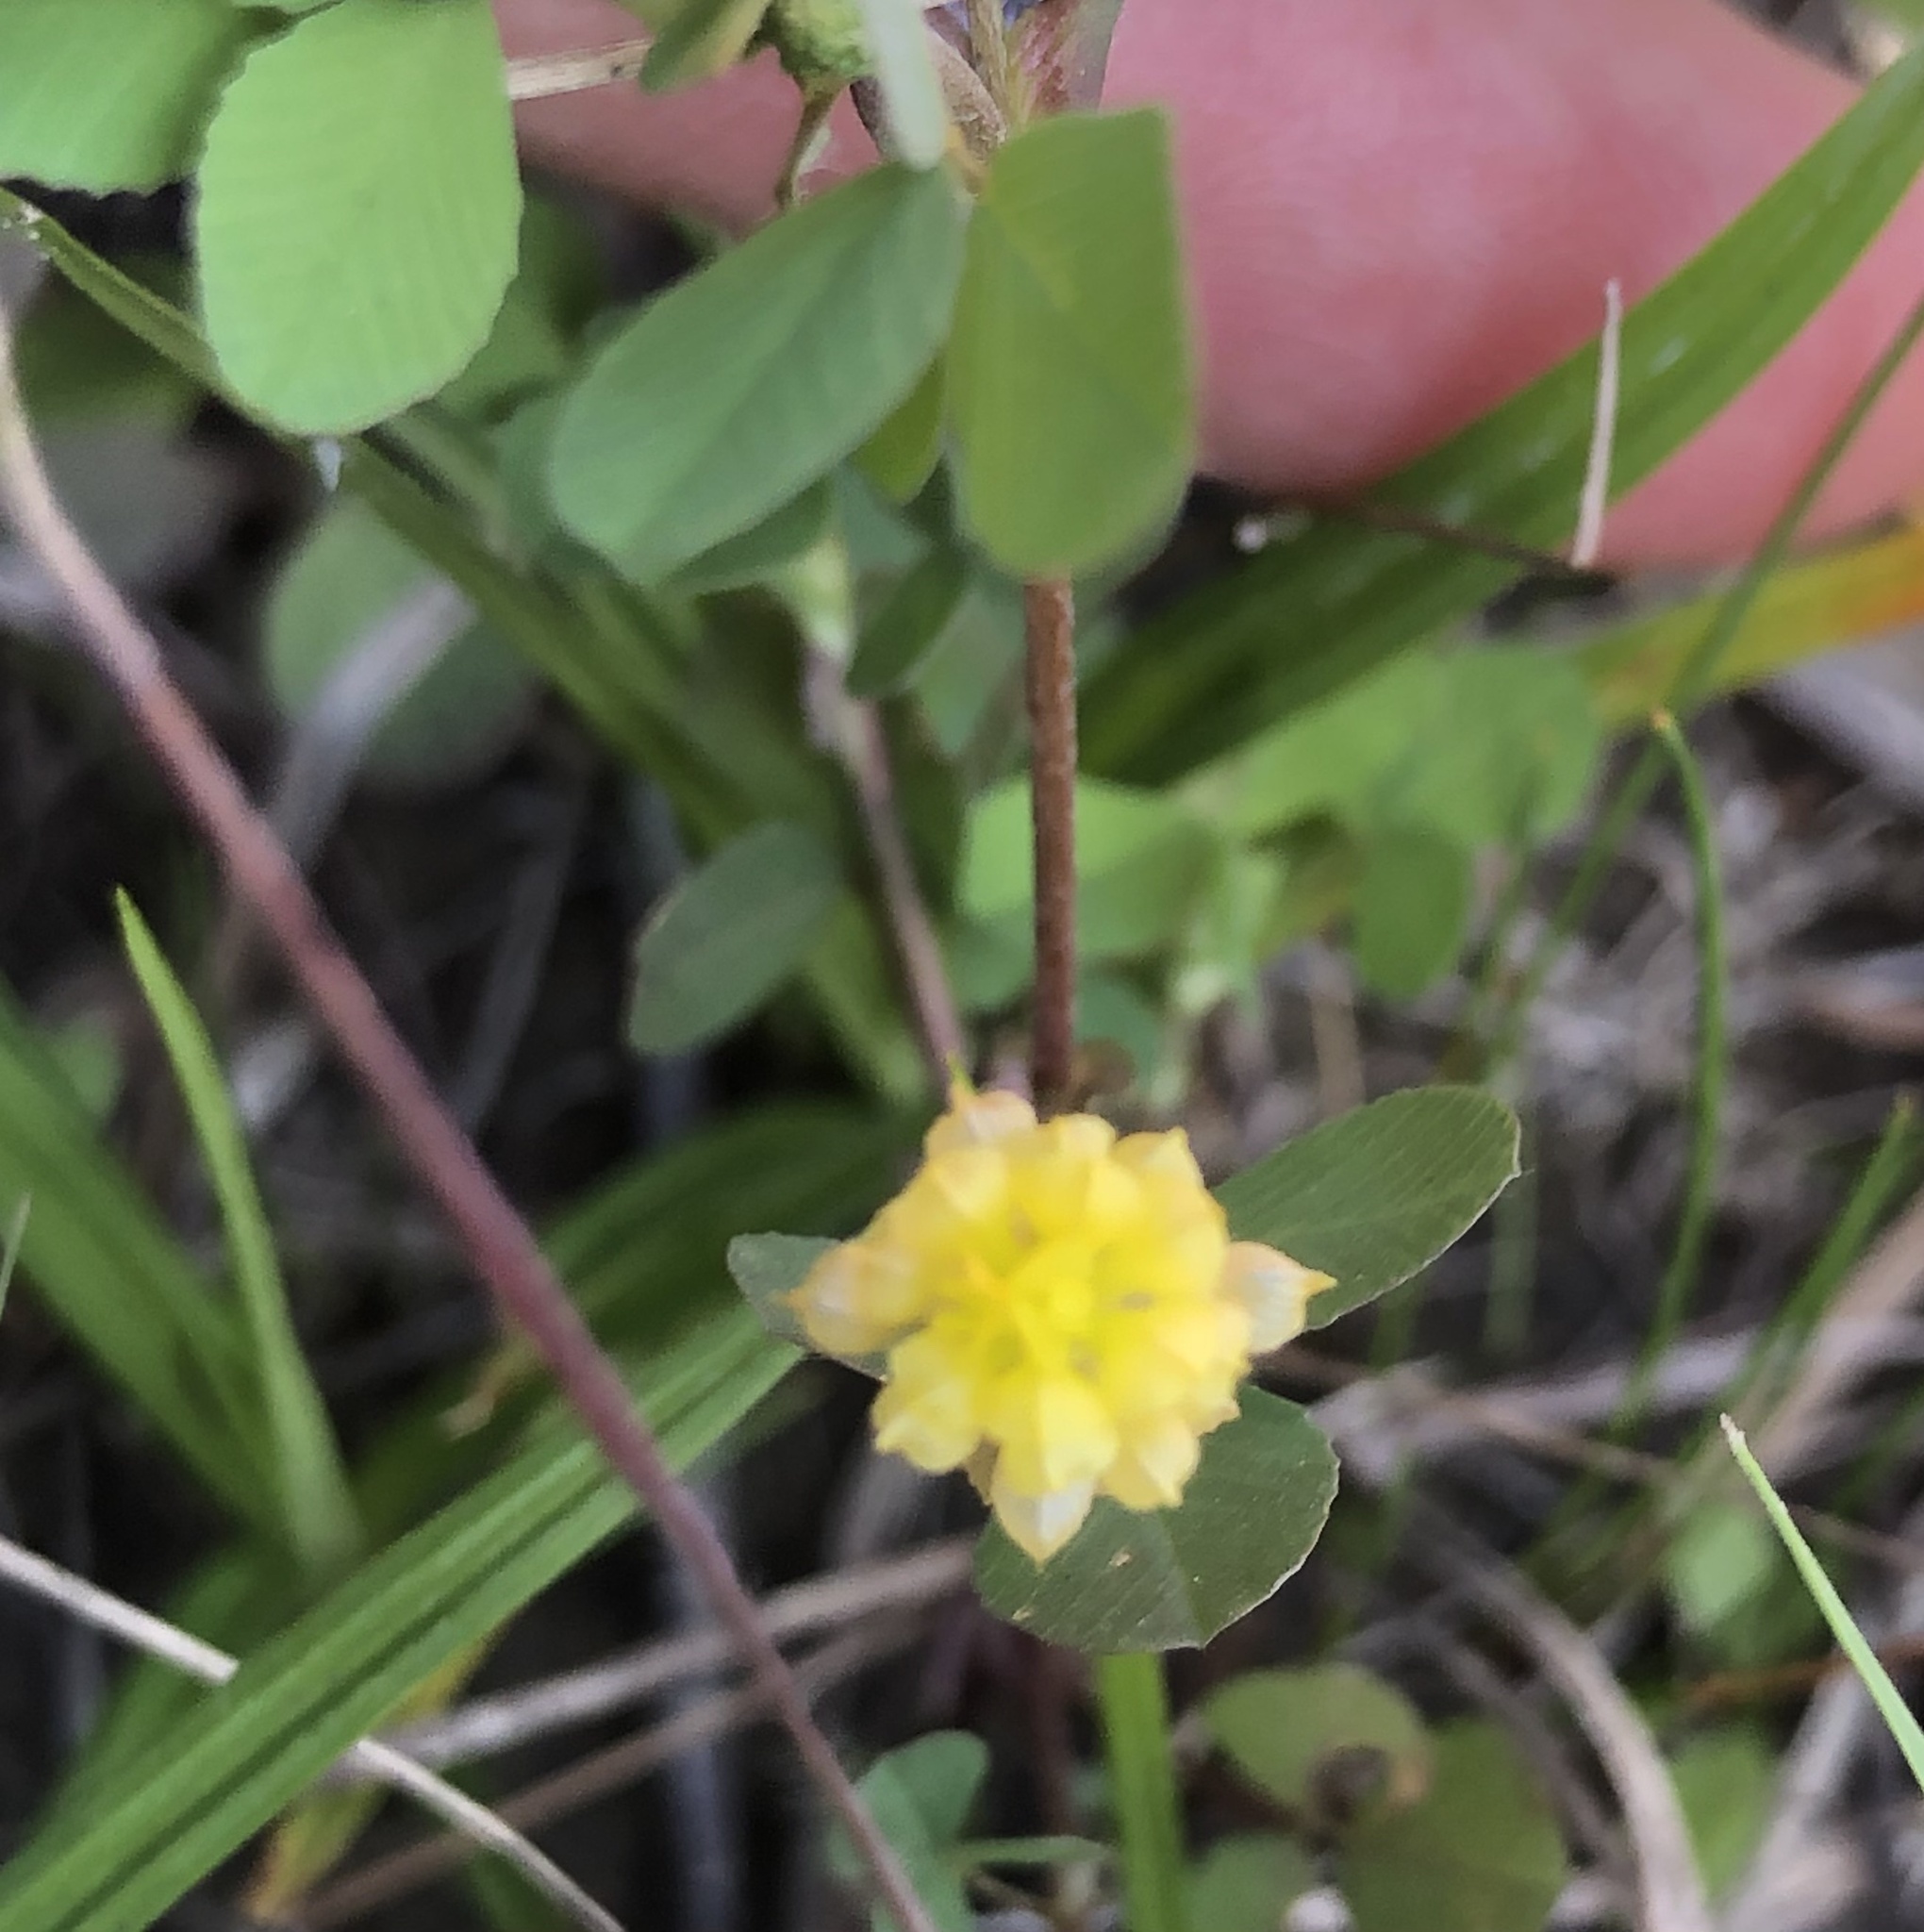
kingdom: Plantae
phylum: Tracheophyta
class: Magnoliopsida
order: Fabales
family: Fabaceae
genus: Trifolium
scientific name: Trifolium campestre
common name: Field clover
